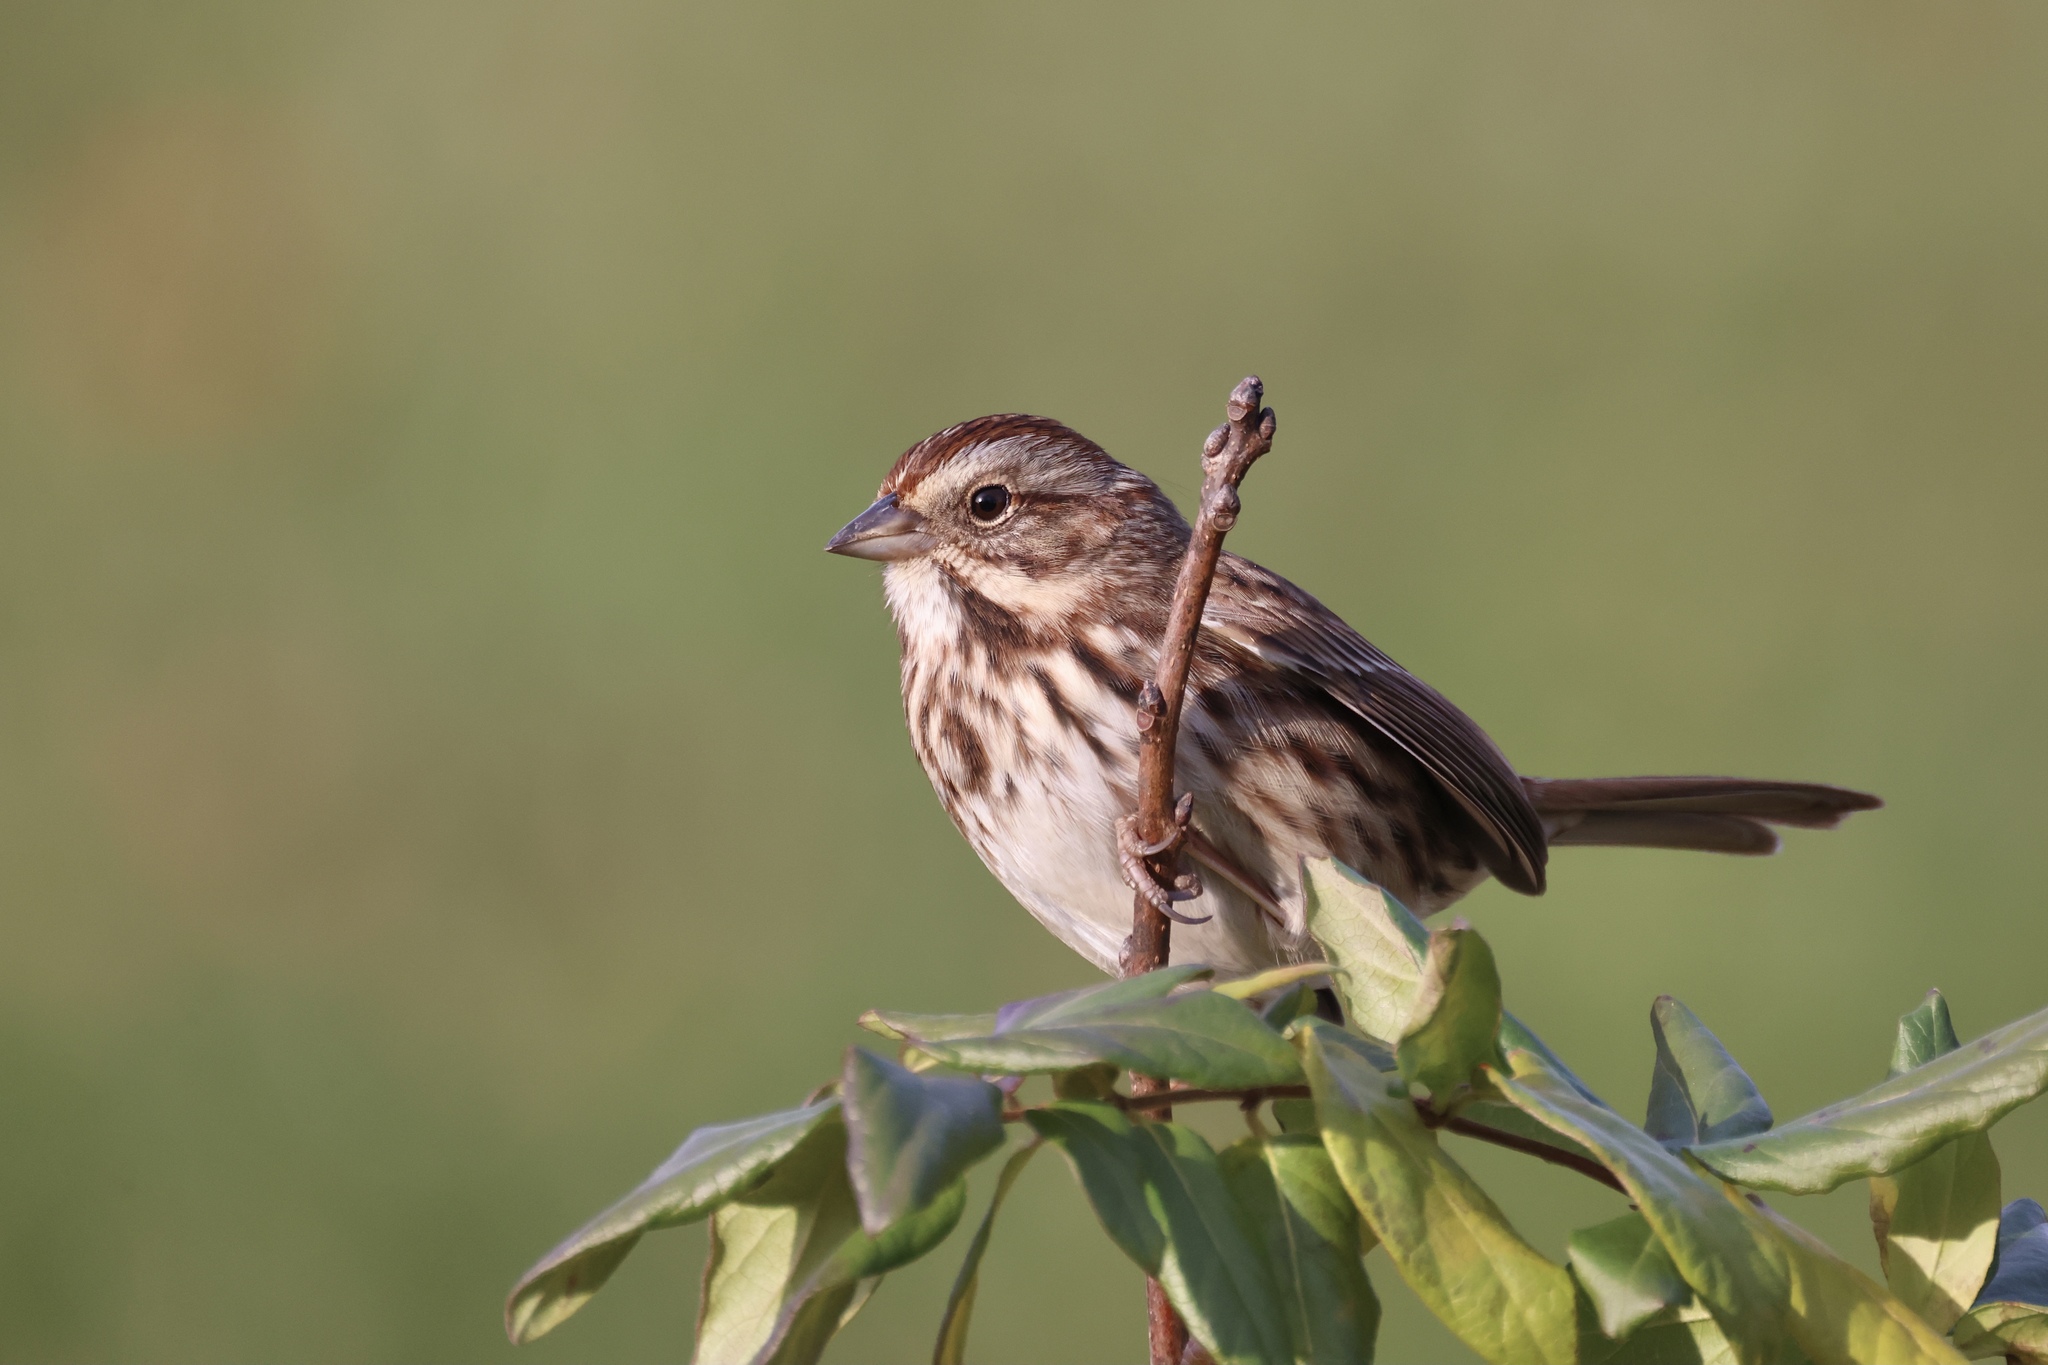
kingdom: Animalia
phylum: Chordata
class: Aves
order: Passeriformes
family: Passerellidae
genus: Melospiza
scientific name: Melospiza melodia
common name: Song sparrow
